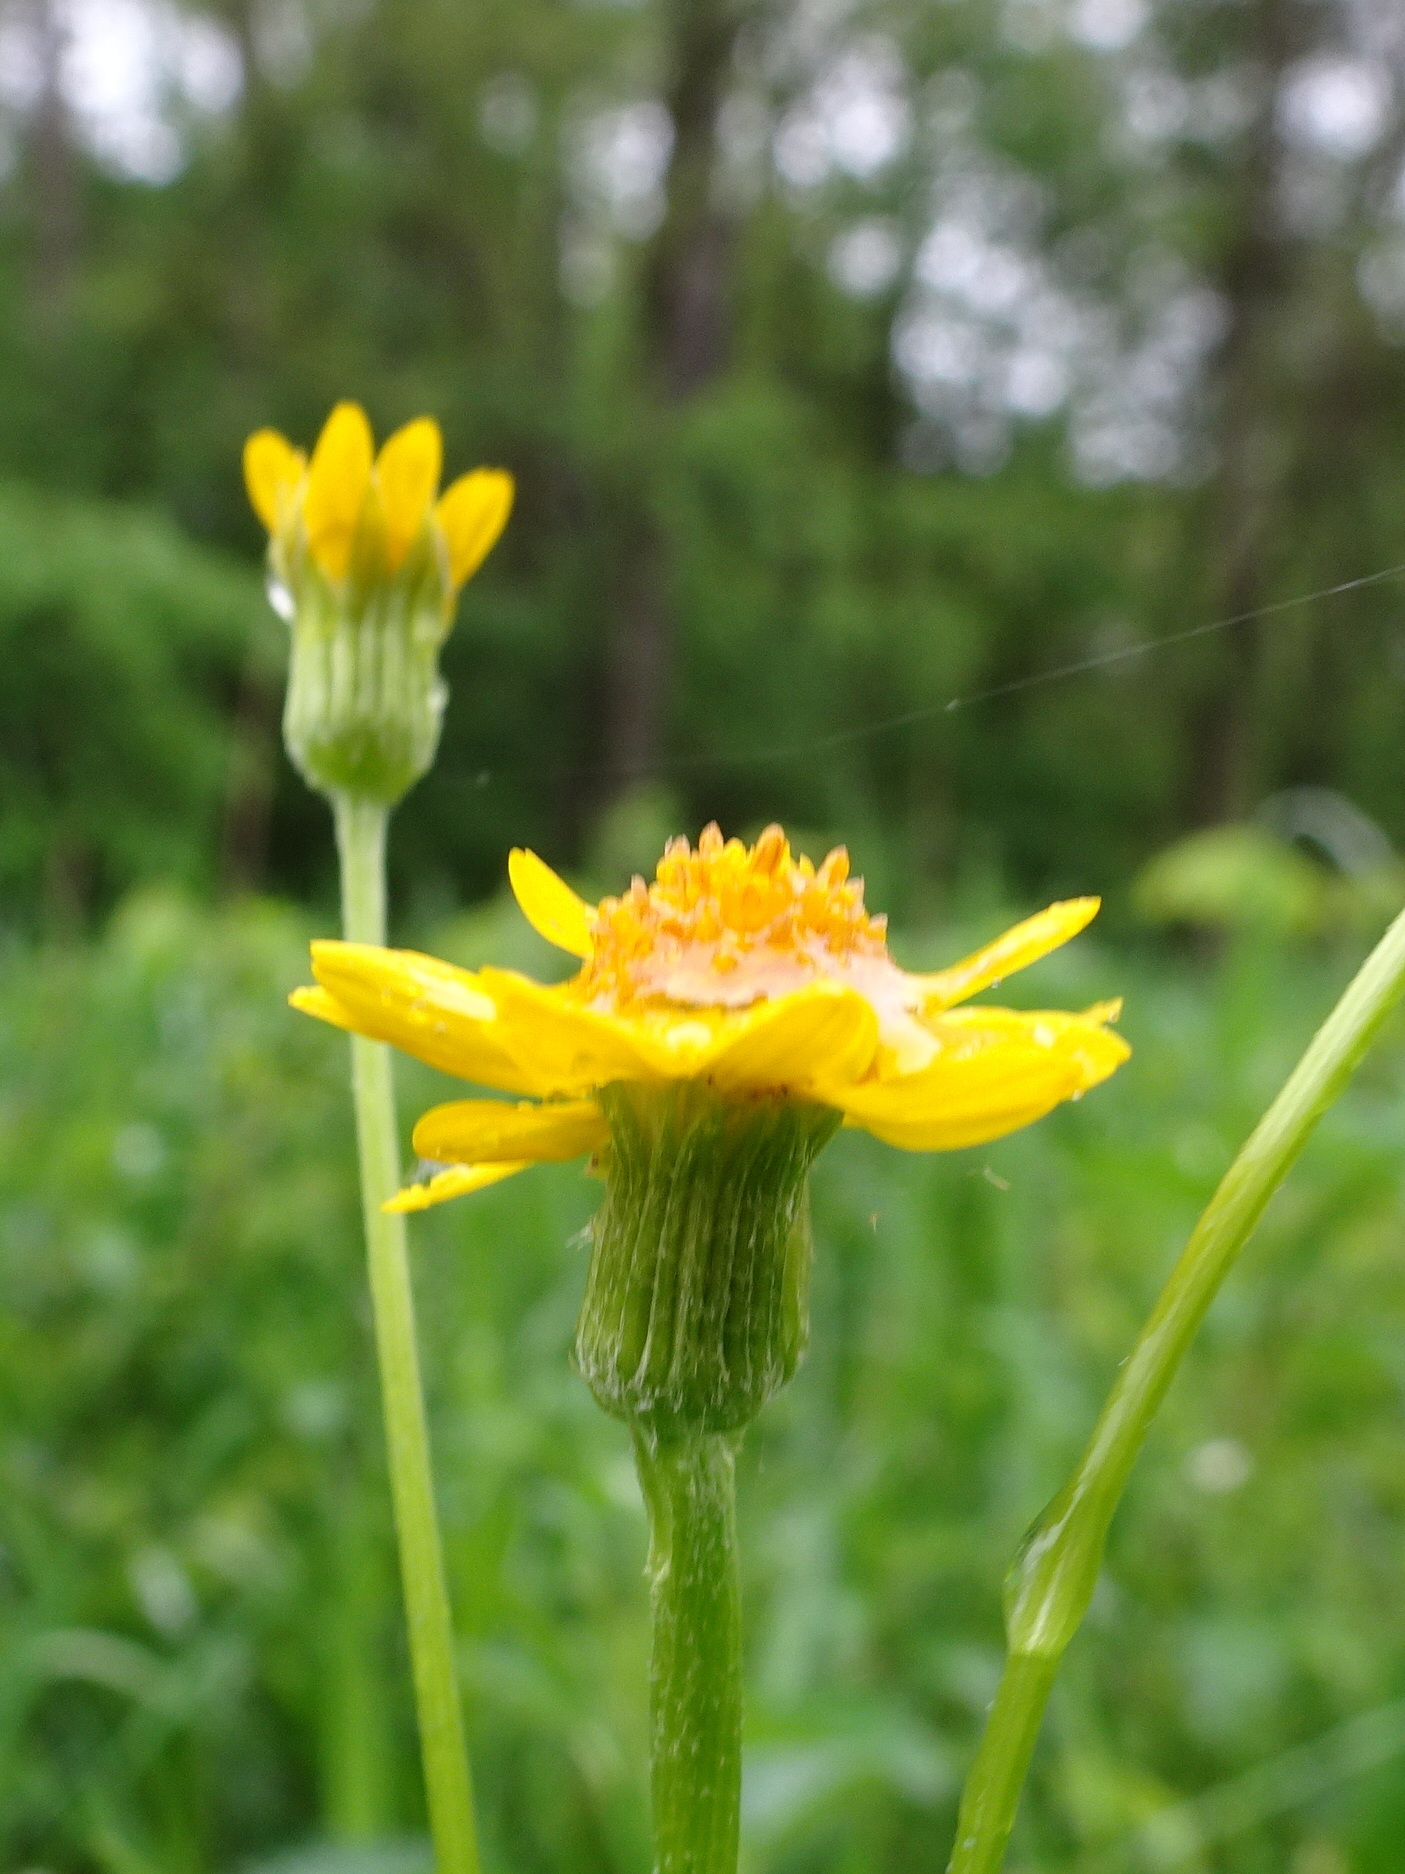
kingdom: Plantae
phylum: Tracheophyta
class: Magnoliopsida
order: Asterales
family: Asteraceae
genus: Packera
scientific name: Packera aurea
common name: Golden groundsel
